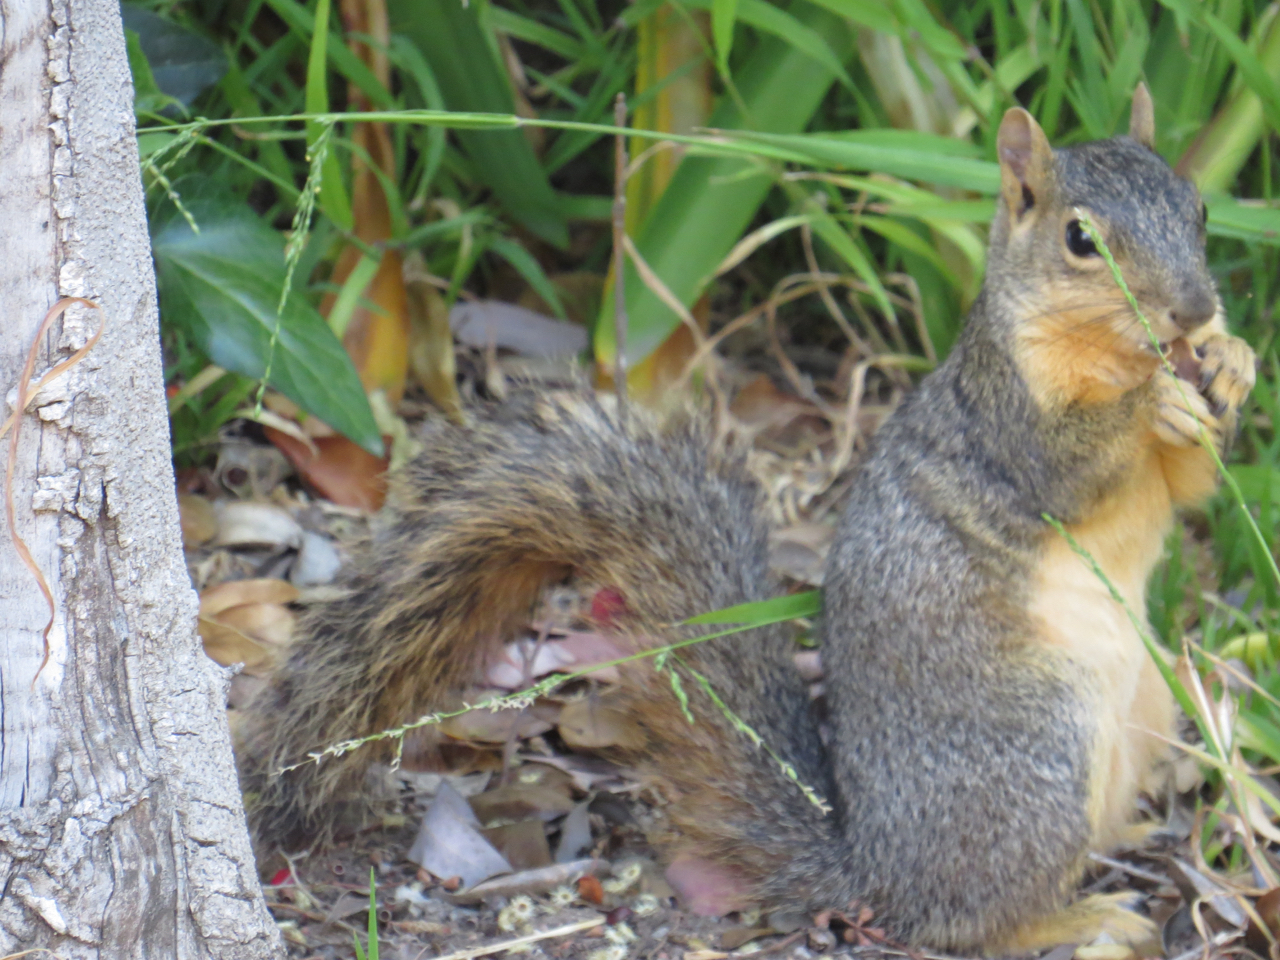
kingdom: Animalia
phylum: Chordata
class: Mammalia
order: Rodentia
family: Sciuridae
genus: Sciurus
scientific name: Sciurus niger
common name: Fox squirrel
